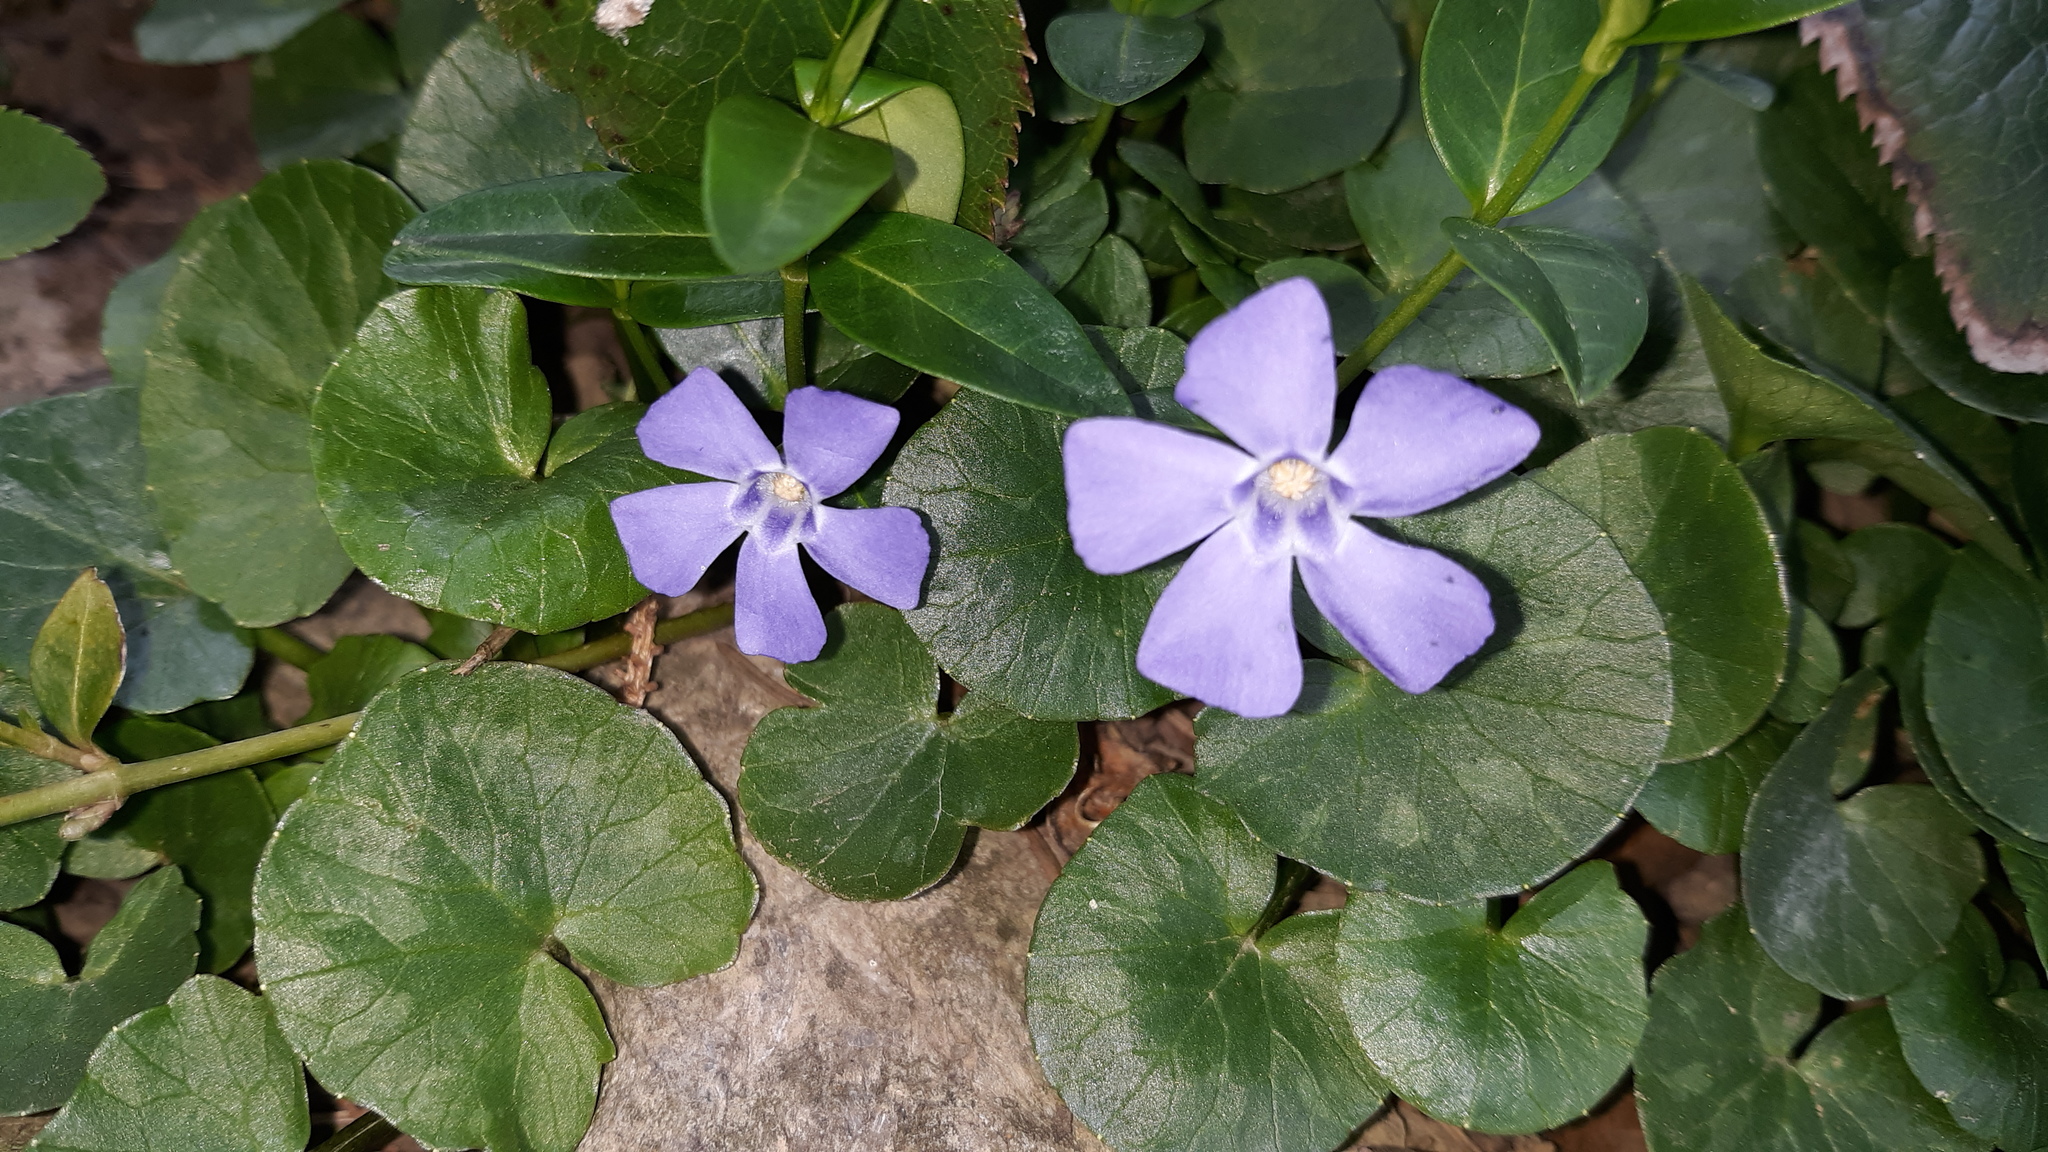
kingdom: Plantae
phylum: Tracheophyta
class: Magnoliopsida
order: Gentianales
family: Apocynaceae
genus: Vinca
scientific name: Vinca minor
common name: Lesser periwinkle
